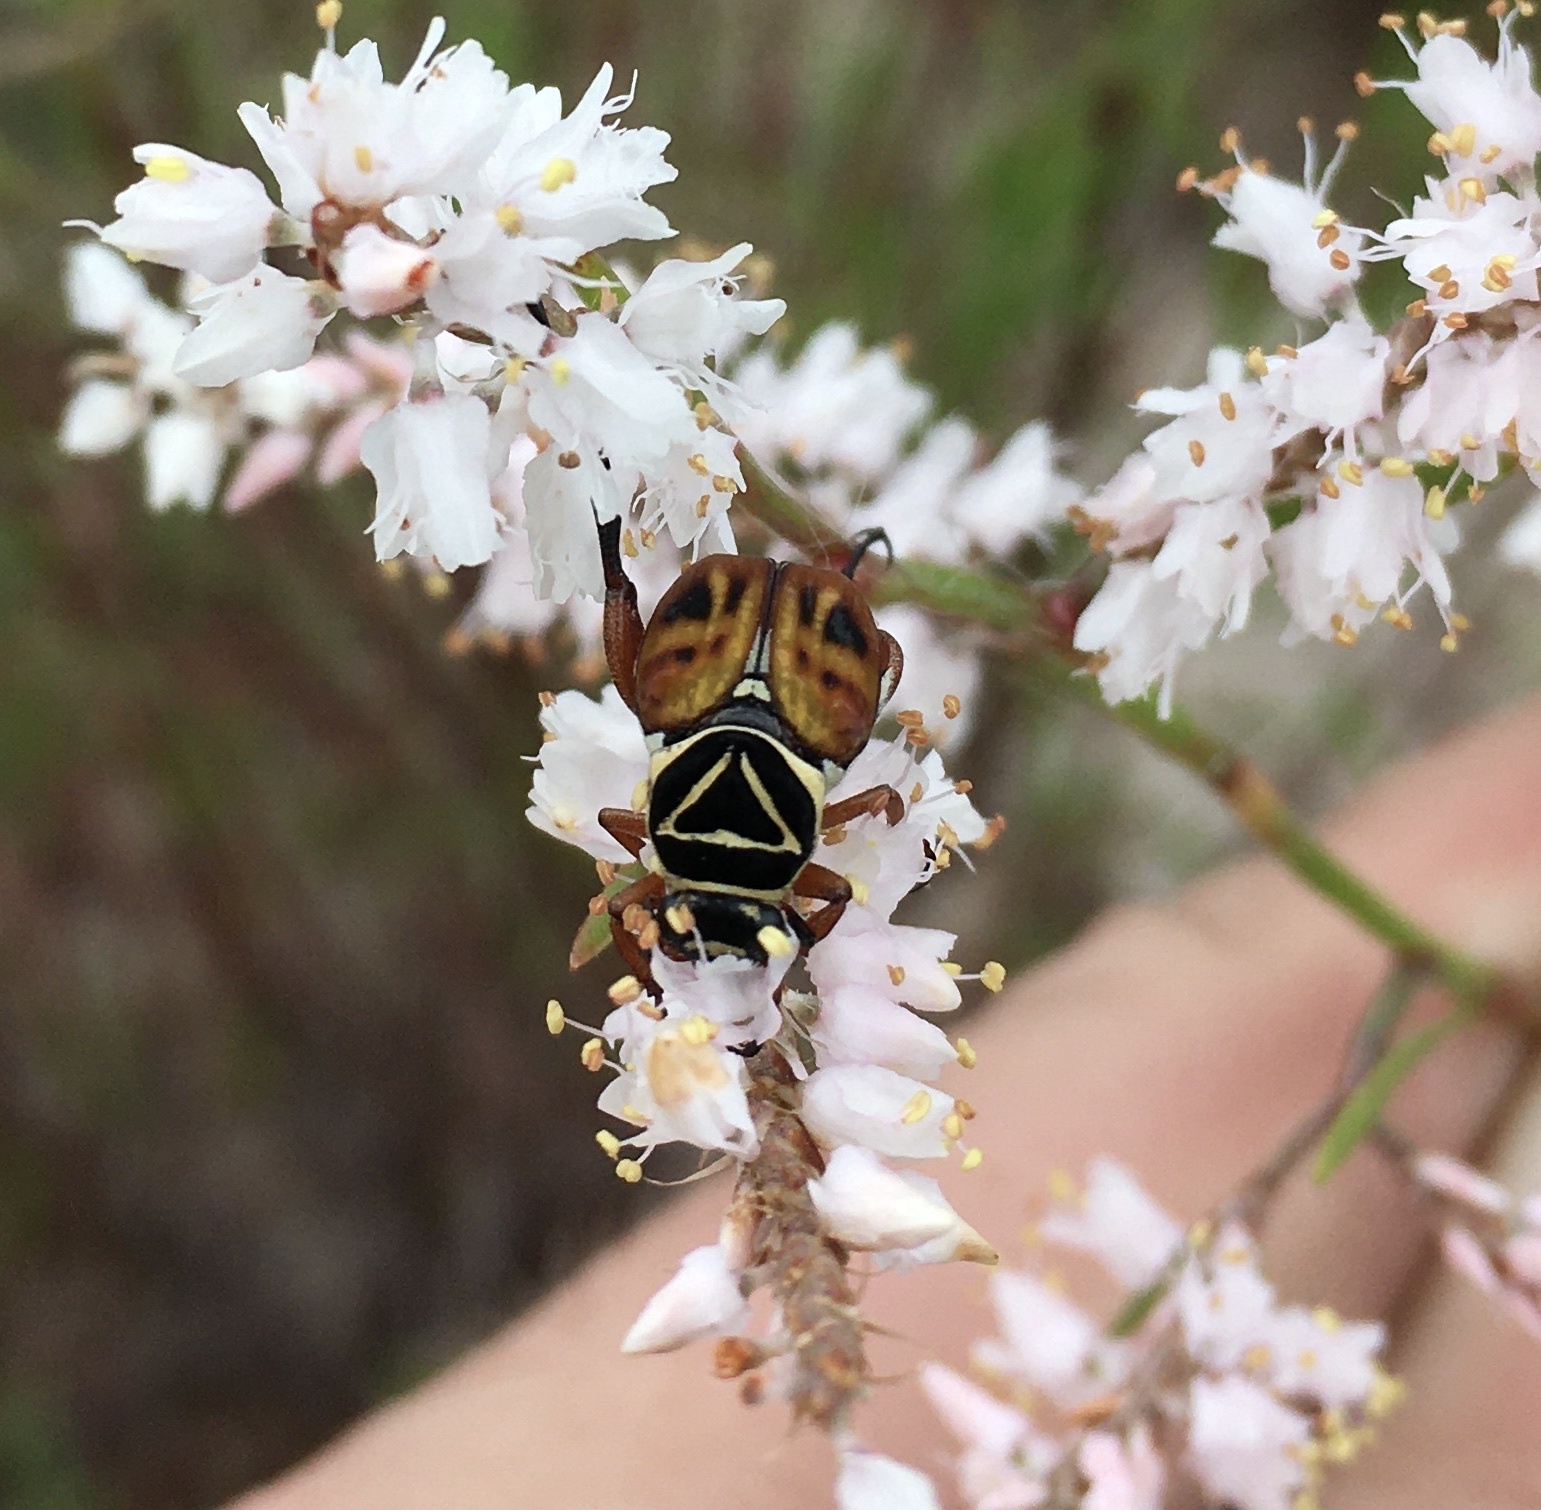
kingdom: Animalia
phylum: Arthropoda
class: Insecta
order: Coleoptera
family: Scarabaeidae
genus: Trigonopeltastes
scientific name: Trigonopeltastes delta
